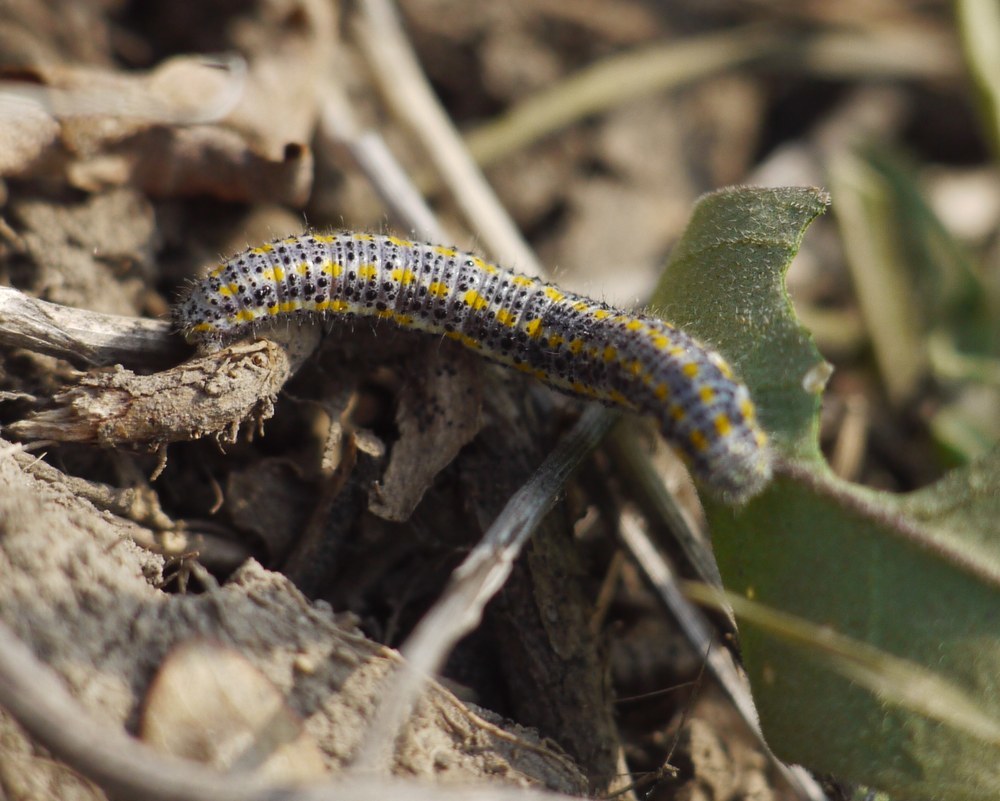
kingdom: Animalia
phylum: Arthropoda
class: Insecta
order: Lepidoptera
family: Pieridae
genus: Pontia
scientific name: Pontia edusa
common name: Eastern bath white
